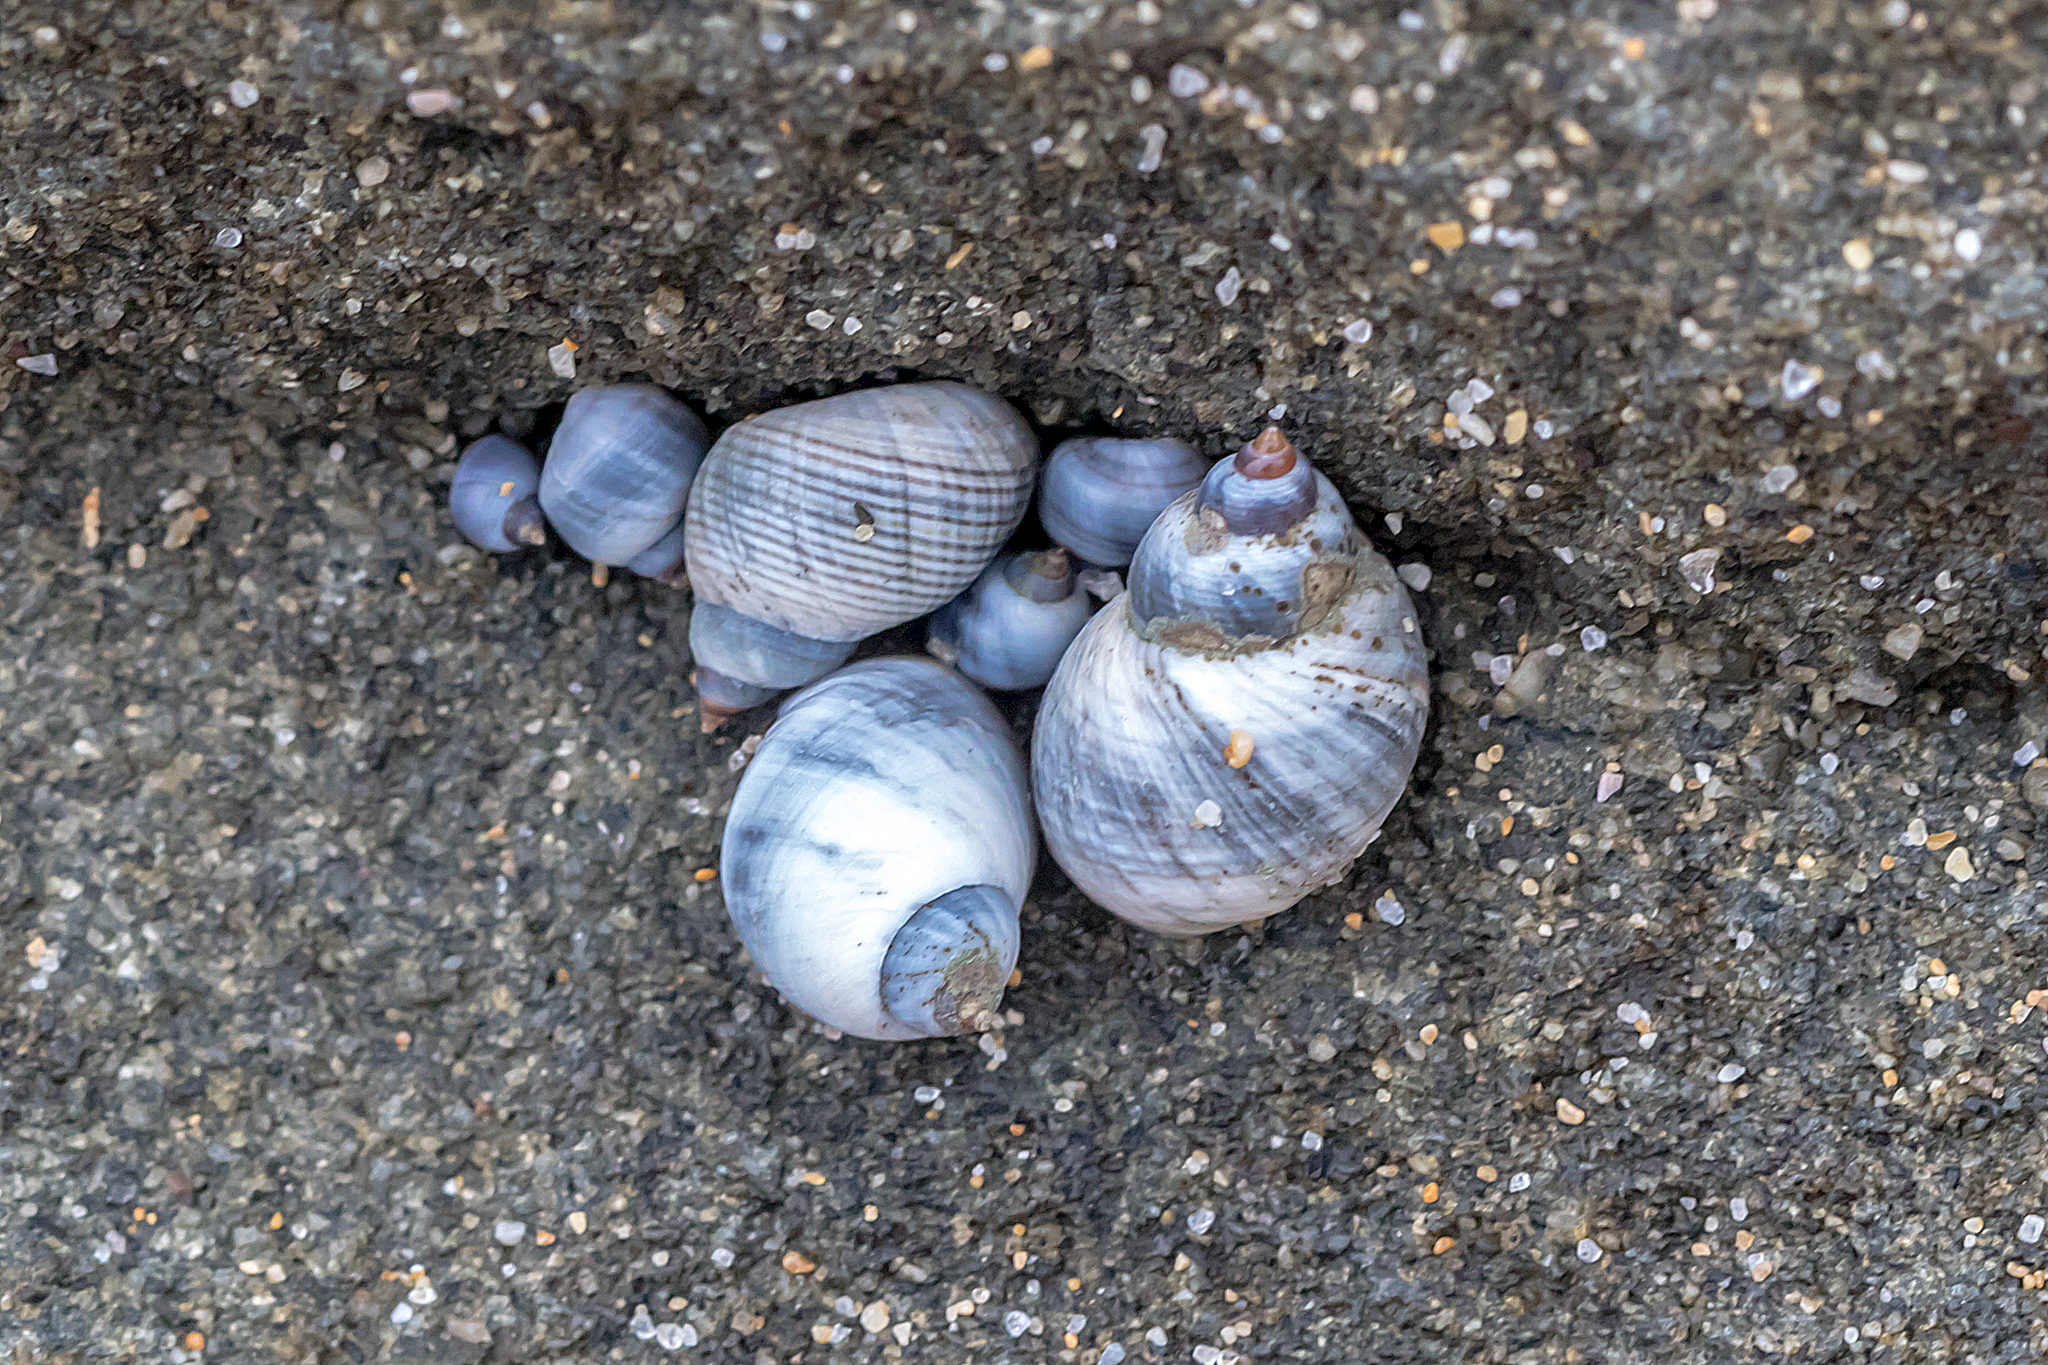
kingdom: Animalia
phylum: Mollusca
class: Gastropoda
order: Littorinimorpha
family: Littorinidae
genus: Austrolittorina
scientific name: Austrolittorina unifasciata
